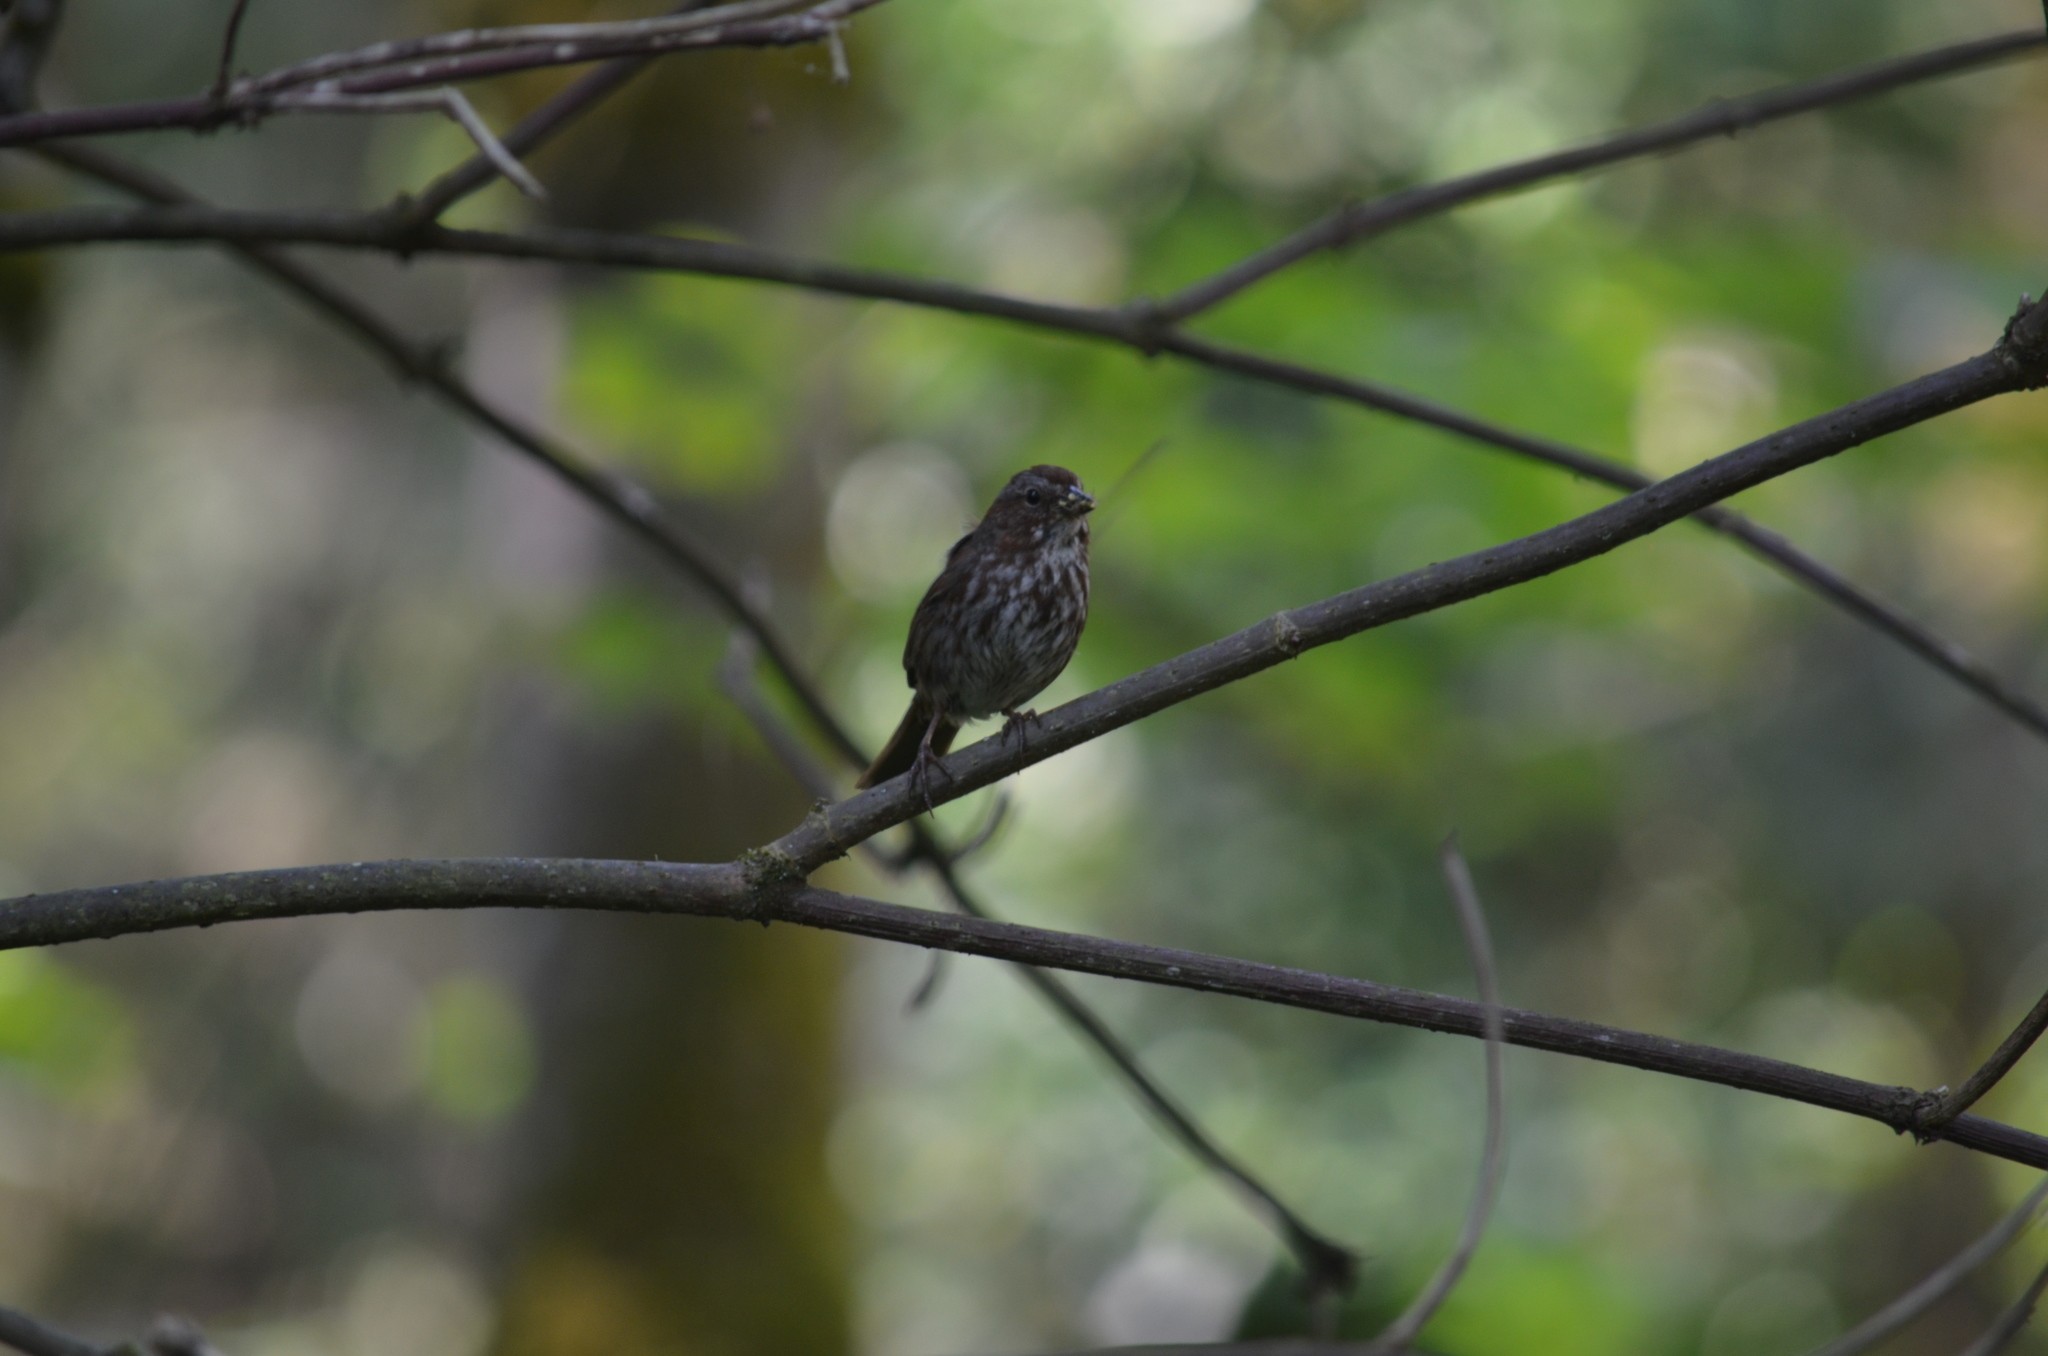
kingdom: Animalia
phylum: Chordata
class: Aves
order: Passeriformes
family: Passerellidae
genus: Melospiza
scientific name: Melospiza melodia
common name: Song sparrow
